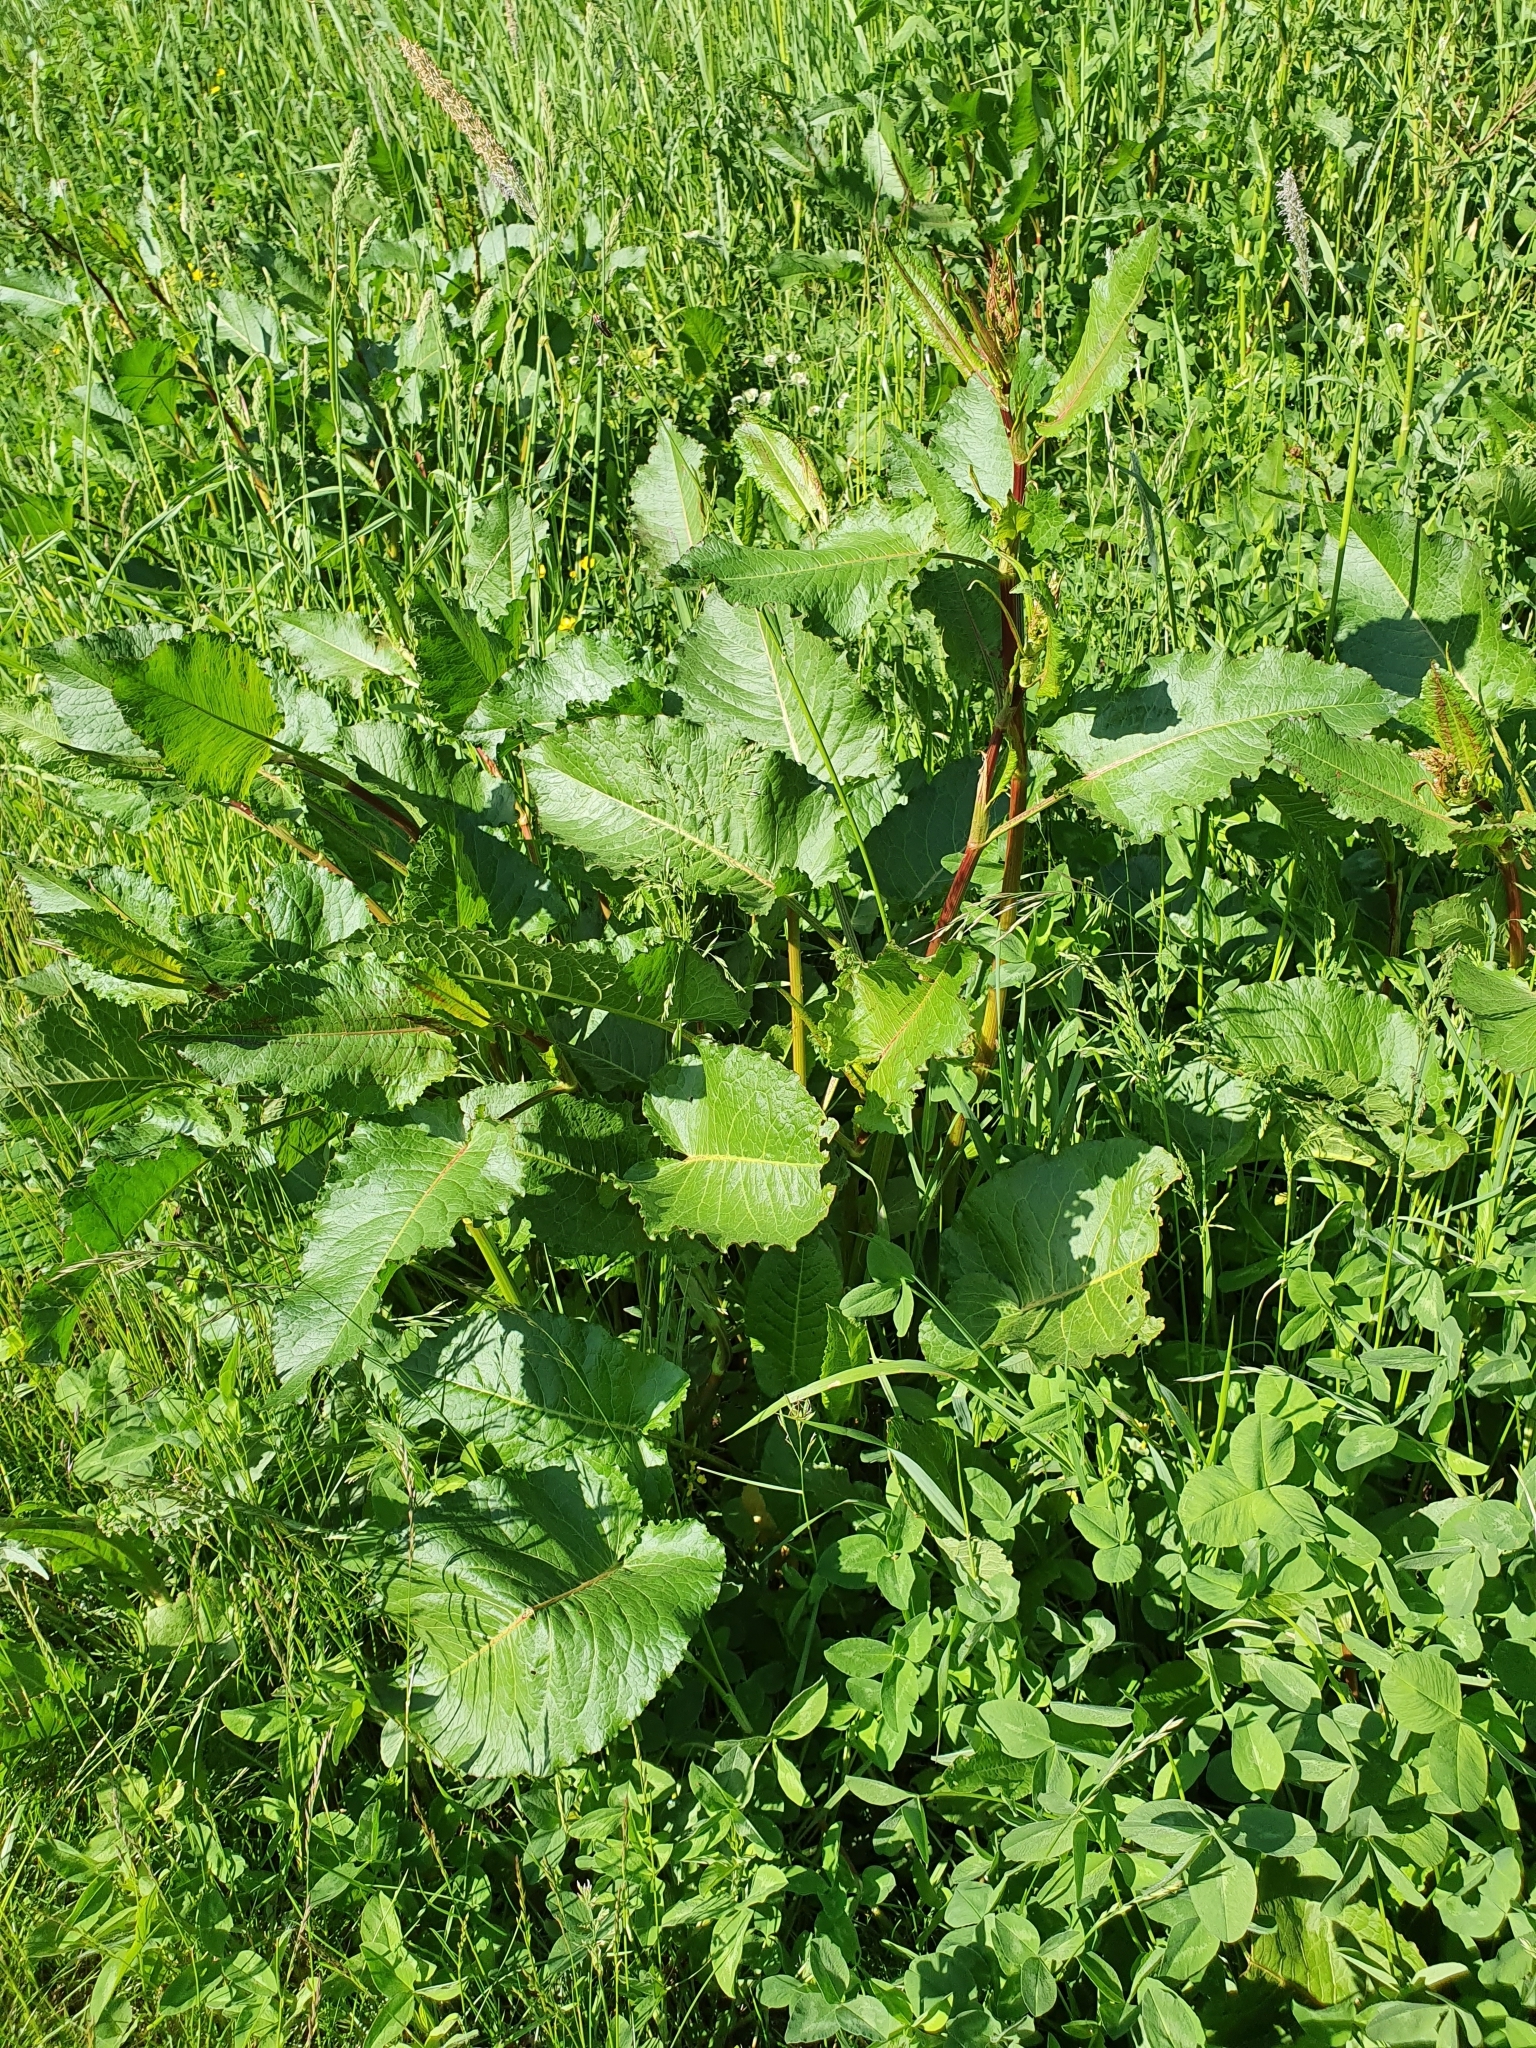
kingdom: Plantae
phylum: Tracheophyta
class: Magnoliopsida
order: Caryophyllales
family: Polygonaceae
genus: Rumex
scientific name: Rumex obtusifolius
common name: Bitter dock
